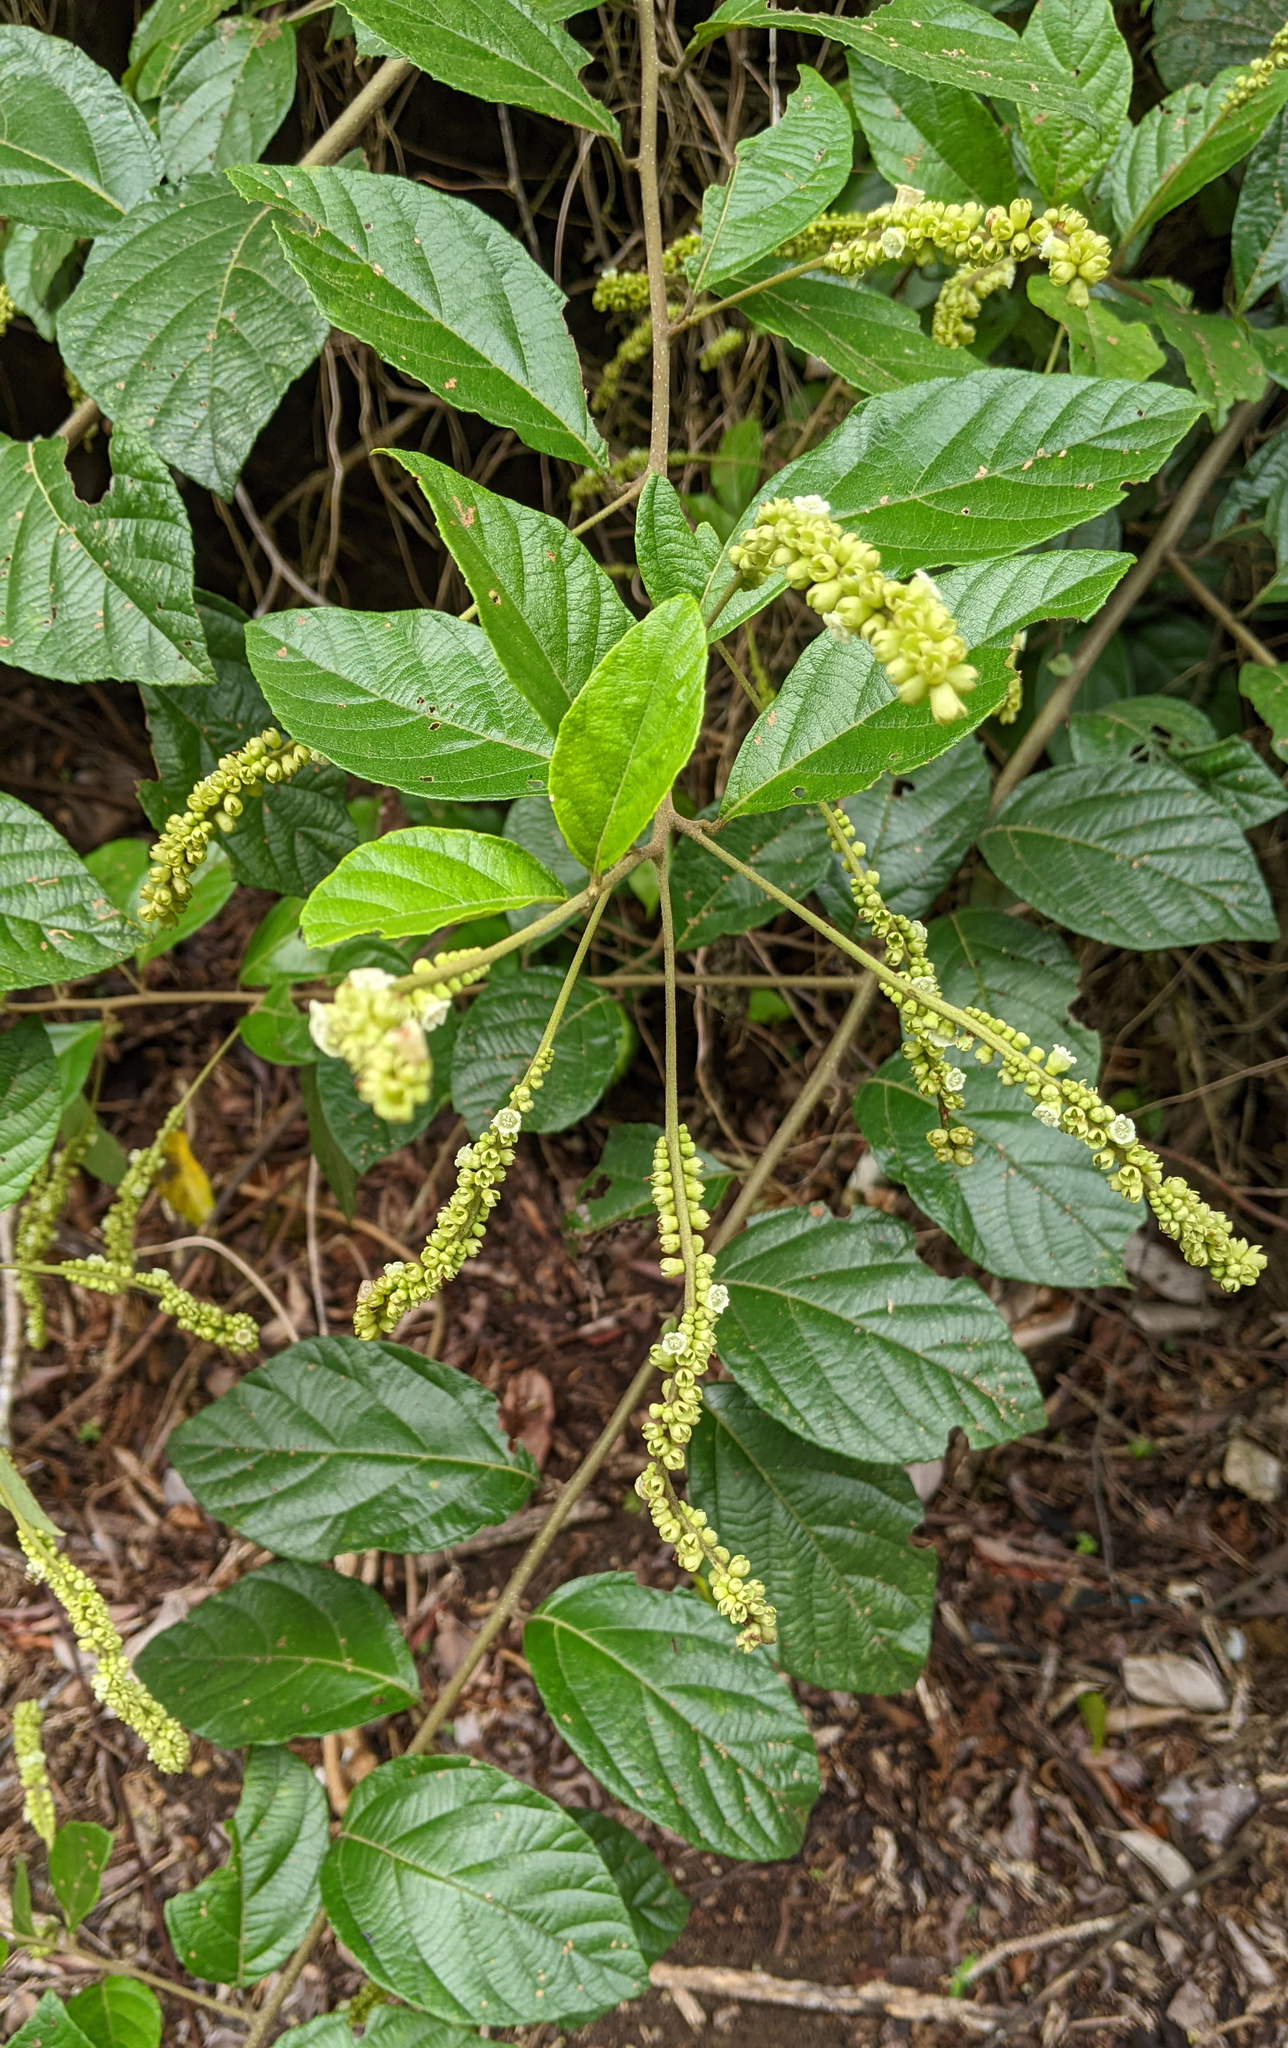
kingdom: Plantae
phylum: Tracheophyta
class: Magnoliopsida
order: Boraginales
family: Cordiaceae
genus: Varronia
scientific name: Varronia schomburgkii
